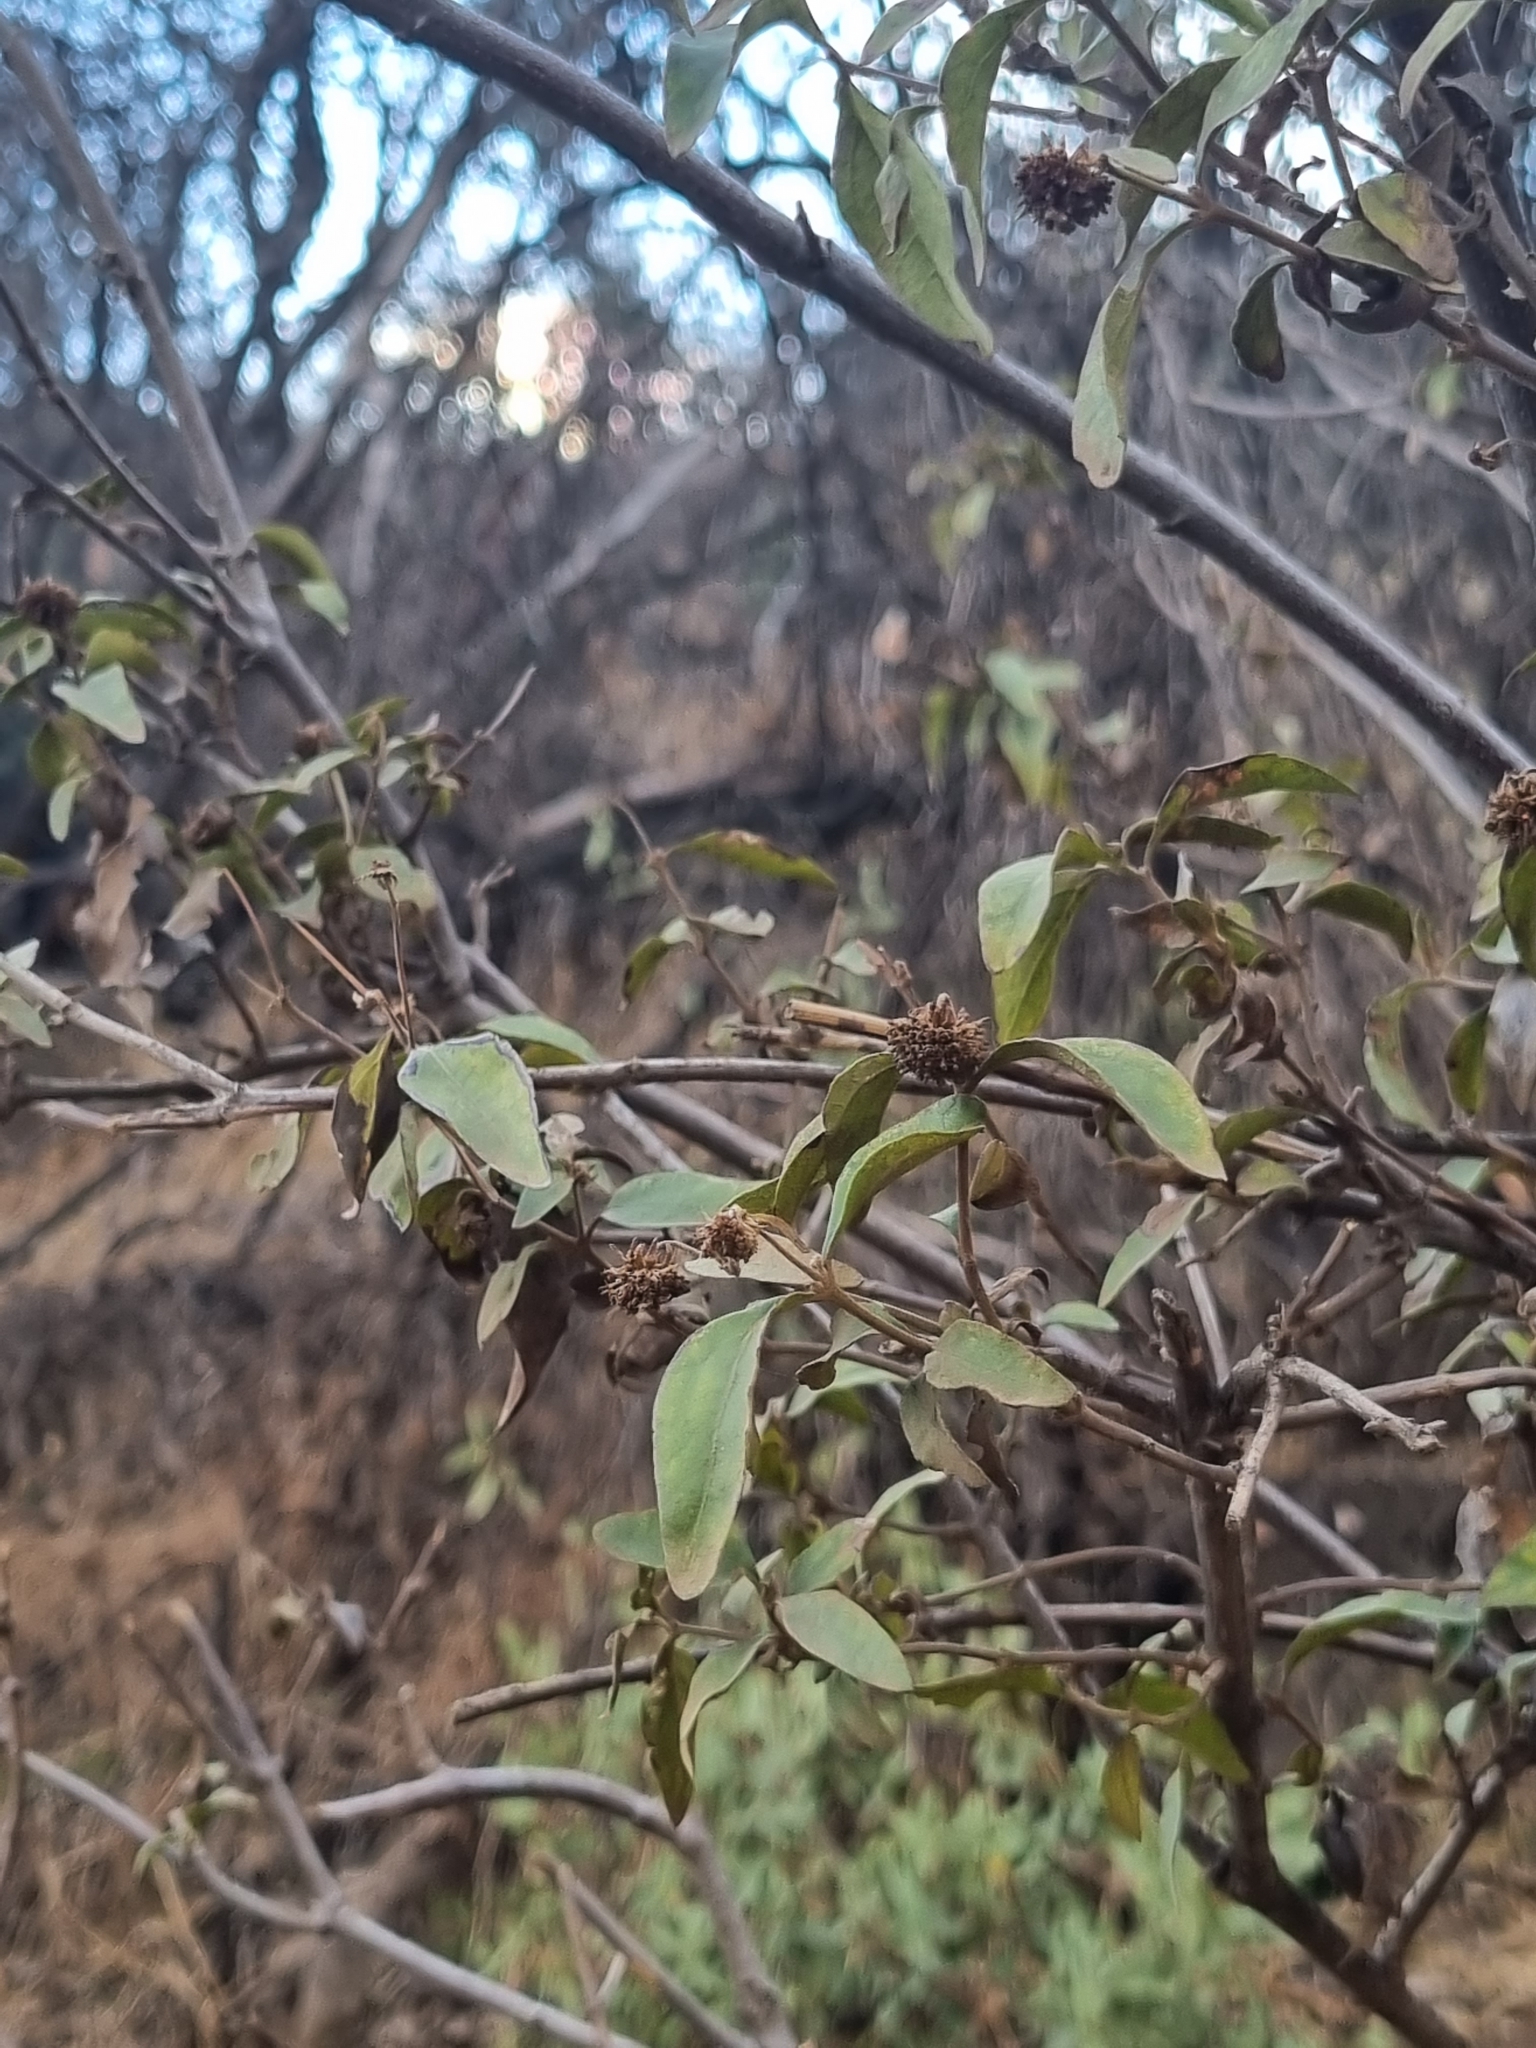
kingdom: Plantae
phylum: Tracheophyta
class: Magnoliopsida
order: Asterales
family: Asteraceae
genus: Podanthus
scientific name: Podanthus mitiqui
